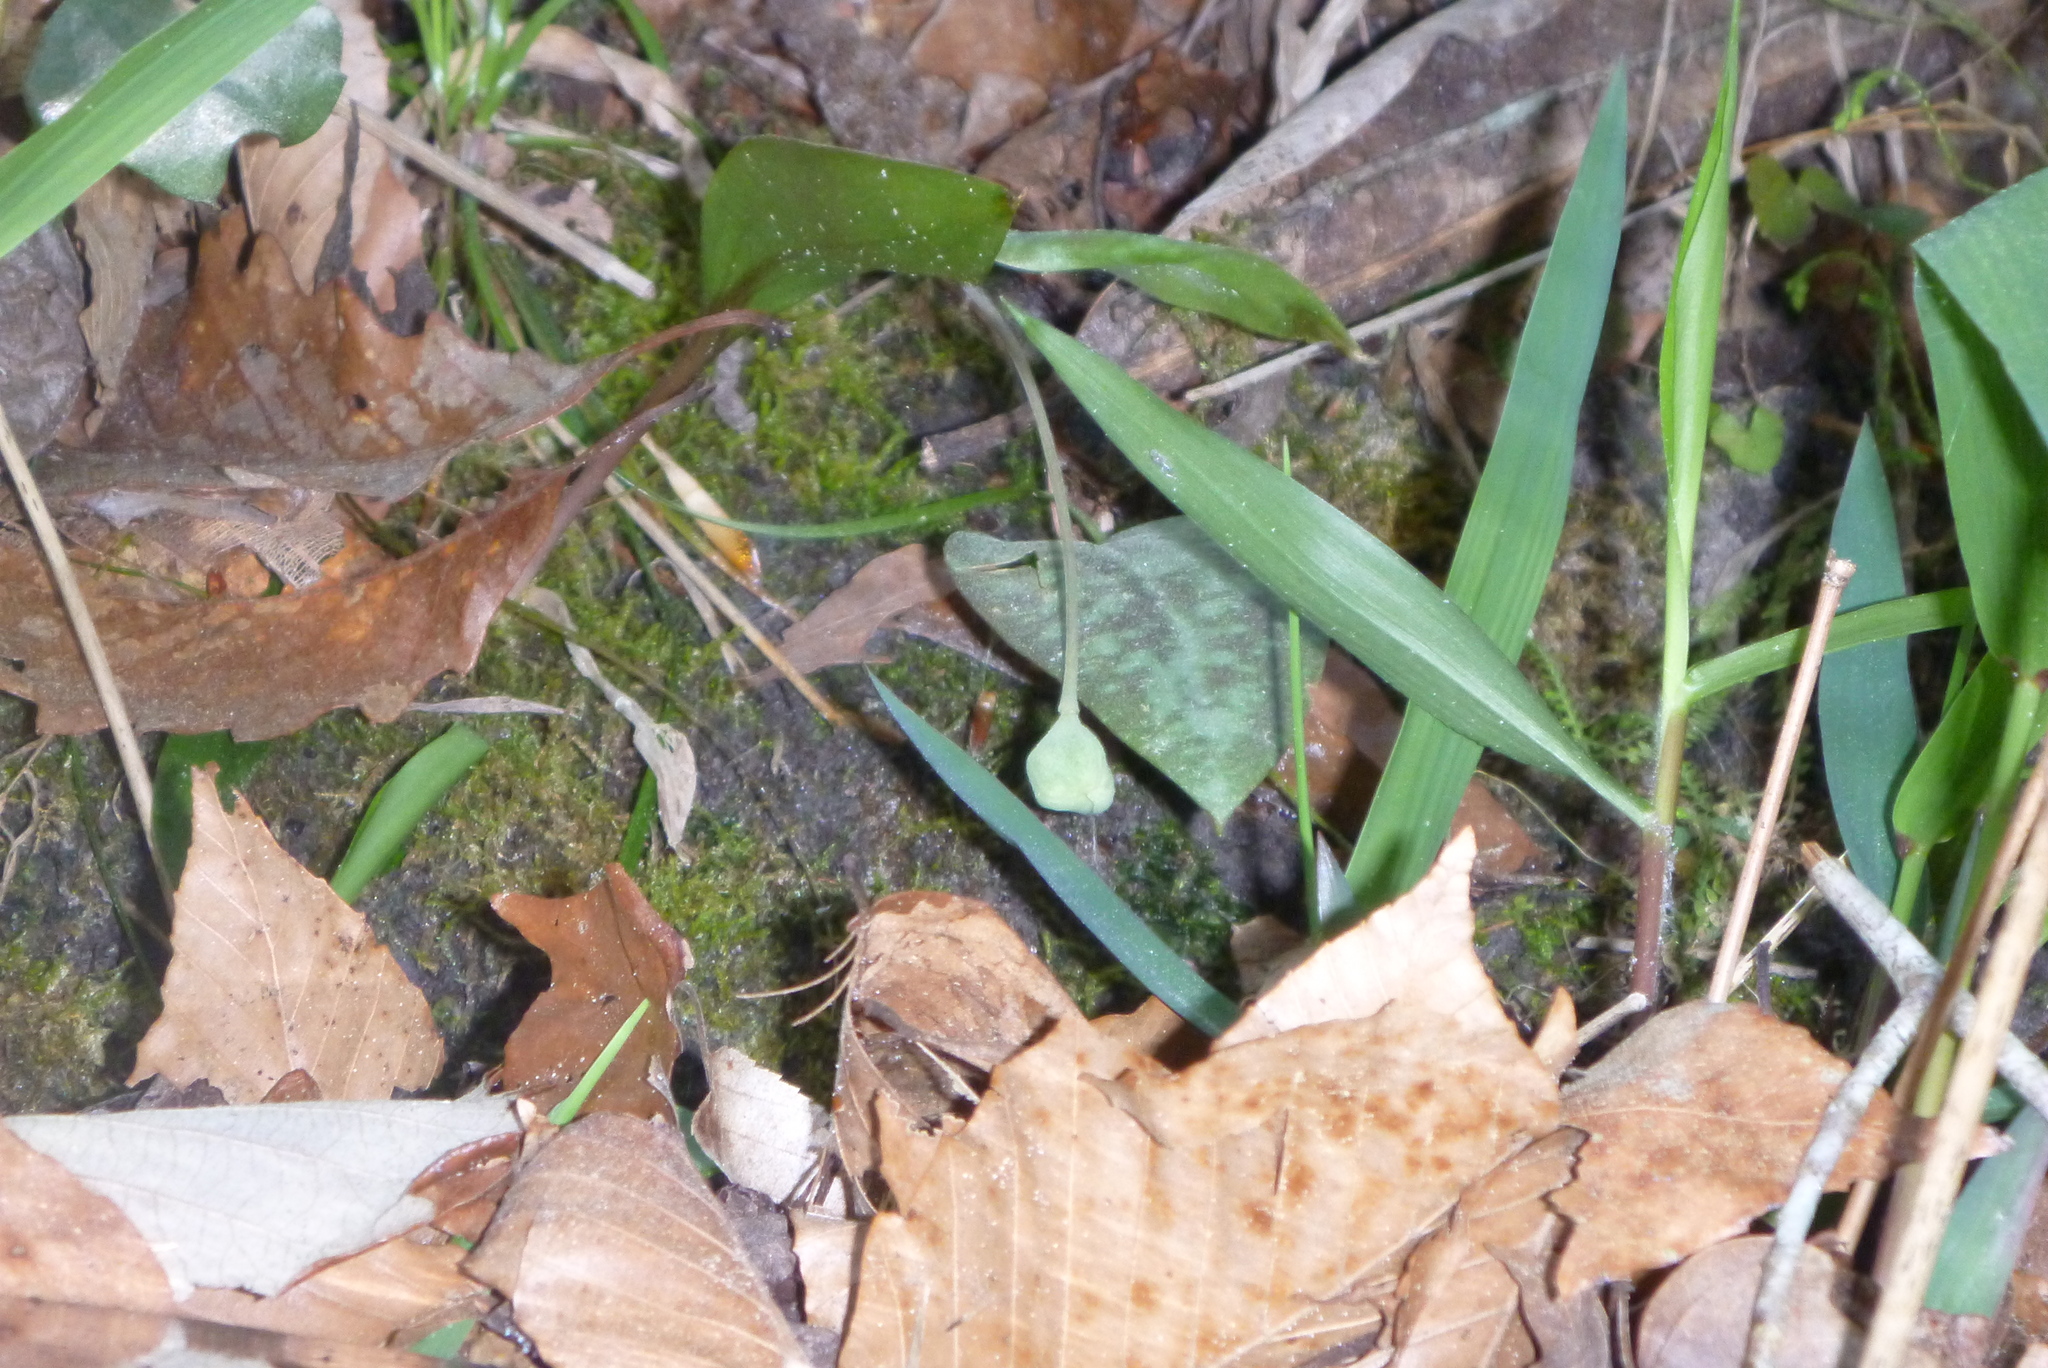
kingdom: Plantae
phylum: Tracheophyta
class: Liliopsida
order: Liliales
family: Liliaceae
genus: Erythronium
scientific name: Erythronium umbilicatum
